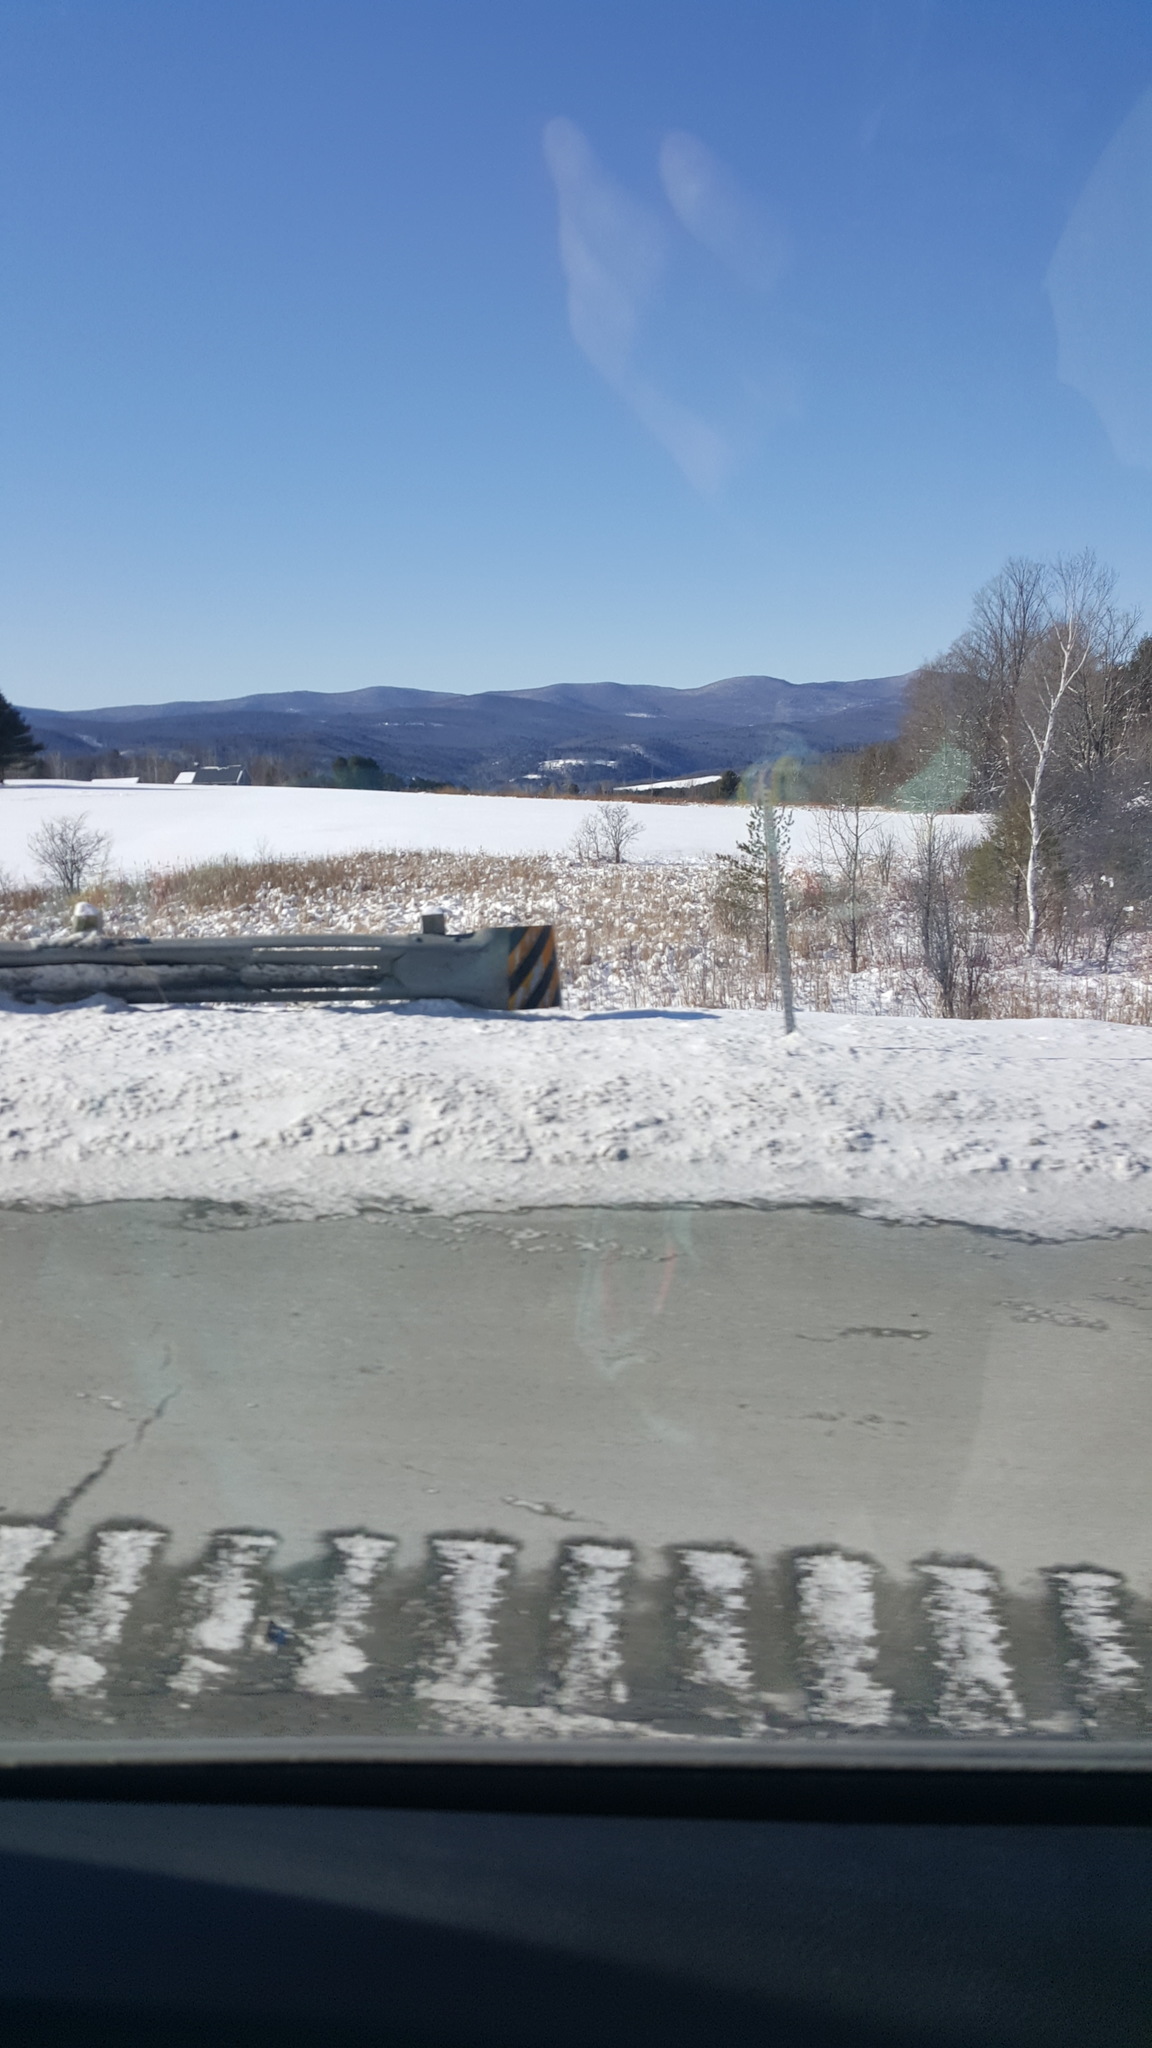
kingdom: Plantae
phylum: Tracheophyta
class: Liliopsida
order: Poales
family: Typhaceae
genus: Typha
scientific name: Typha
